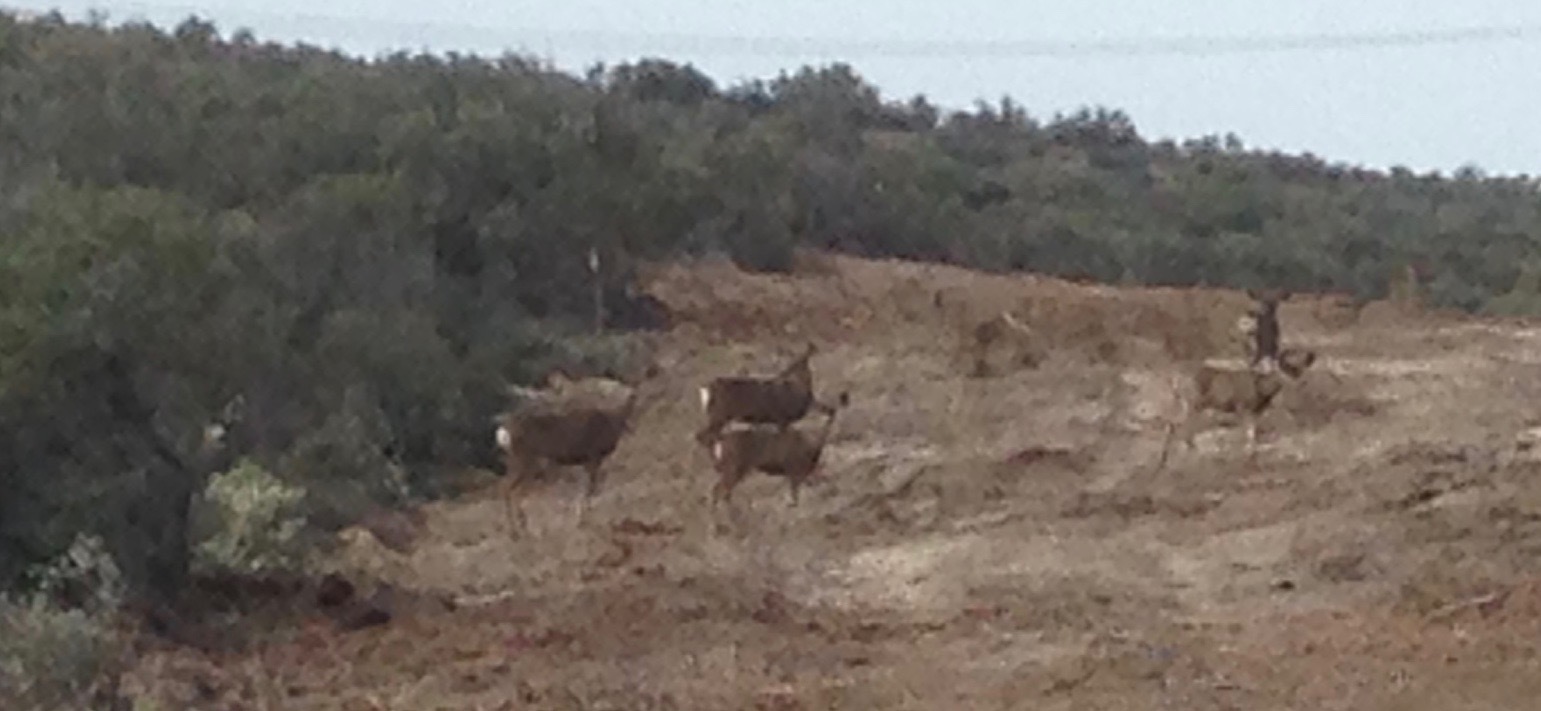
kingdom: Animalia
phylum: Chordata
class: Mammalia
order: Artiodactyla
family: Cervidae
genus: Odocoileus
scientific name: Odocoileus hemionus
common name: Mule deer
